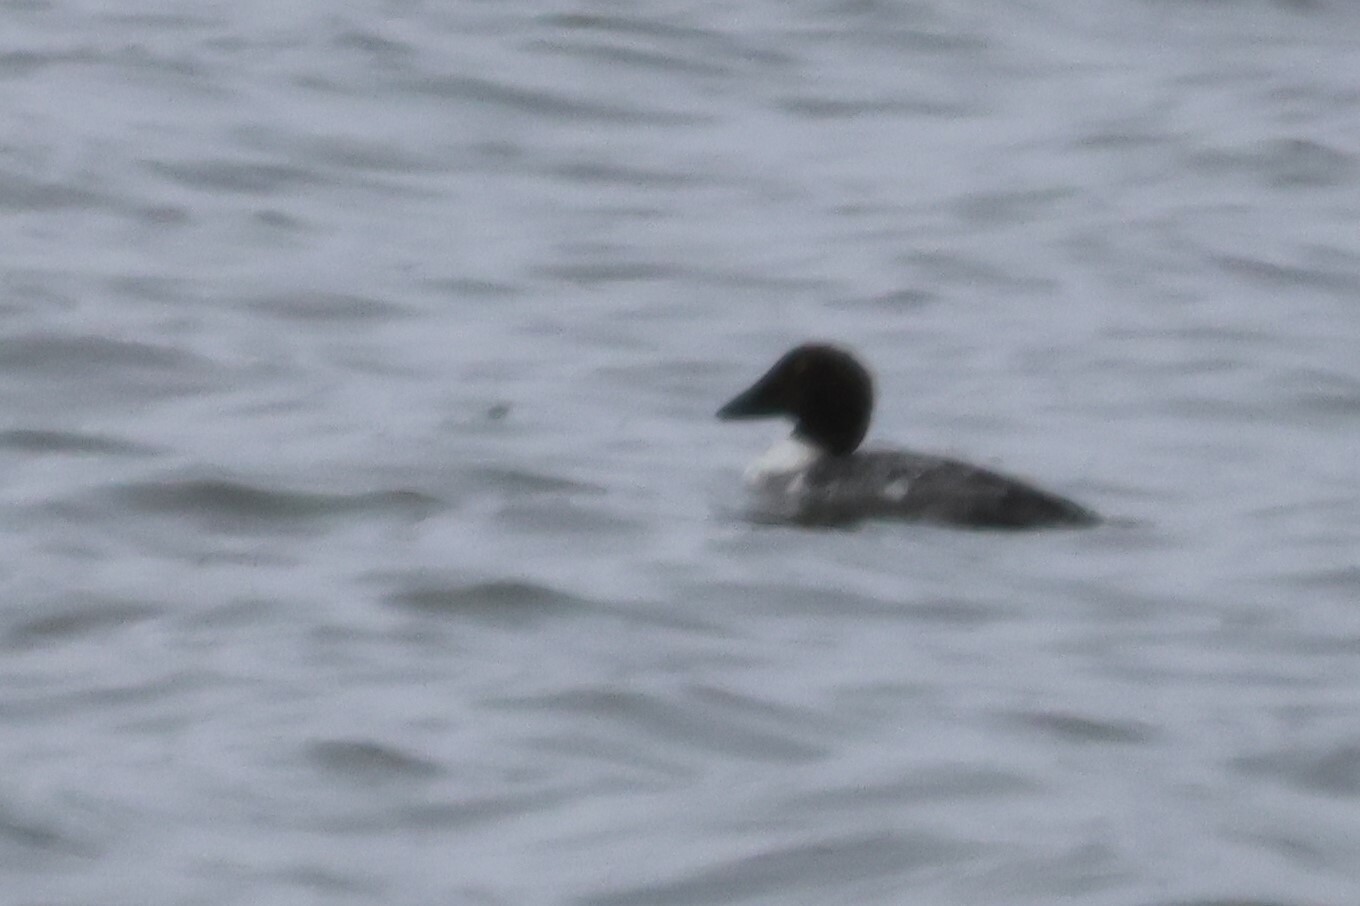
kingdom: Animalia
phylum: Chordata
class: Aves
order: Anseriformes
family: Anatidae
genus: Bucephala
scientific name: Bucephala clangula
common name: Common goldeneye
